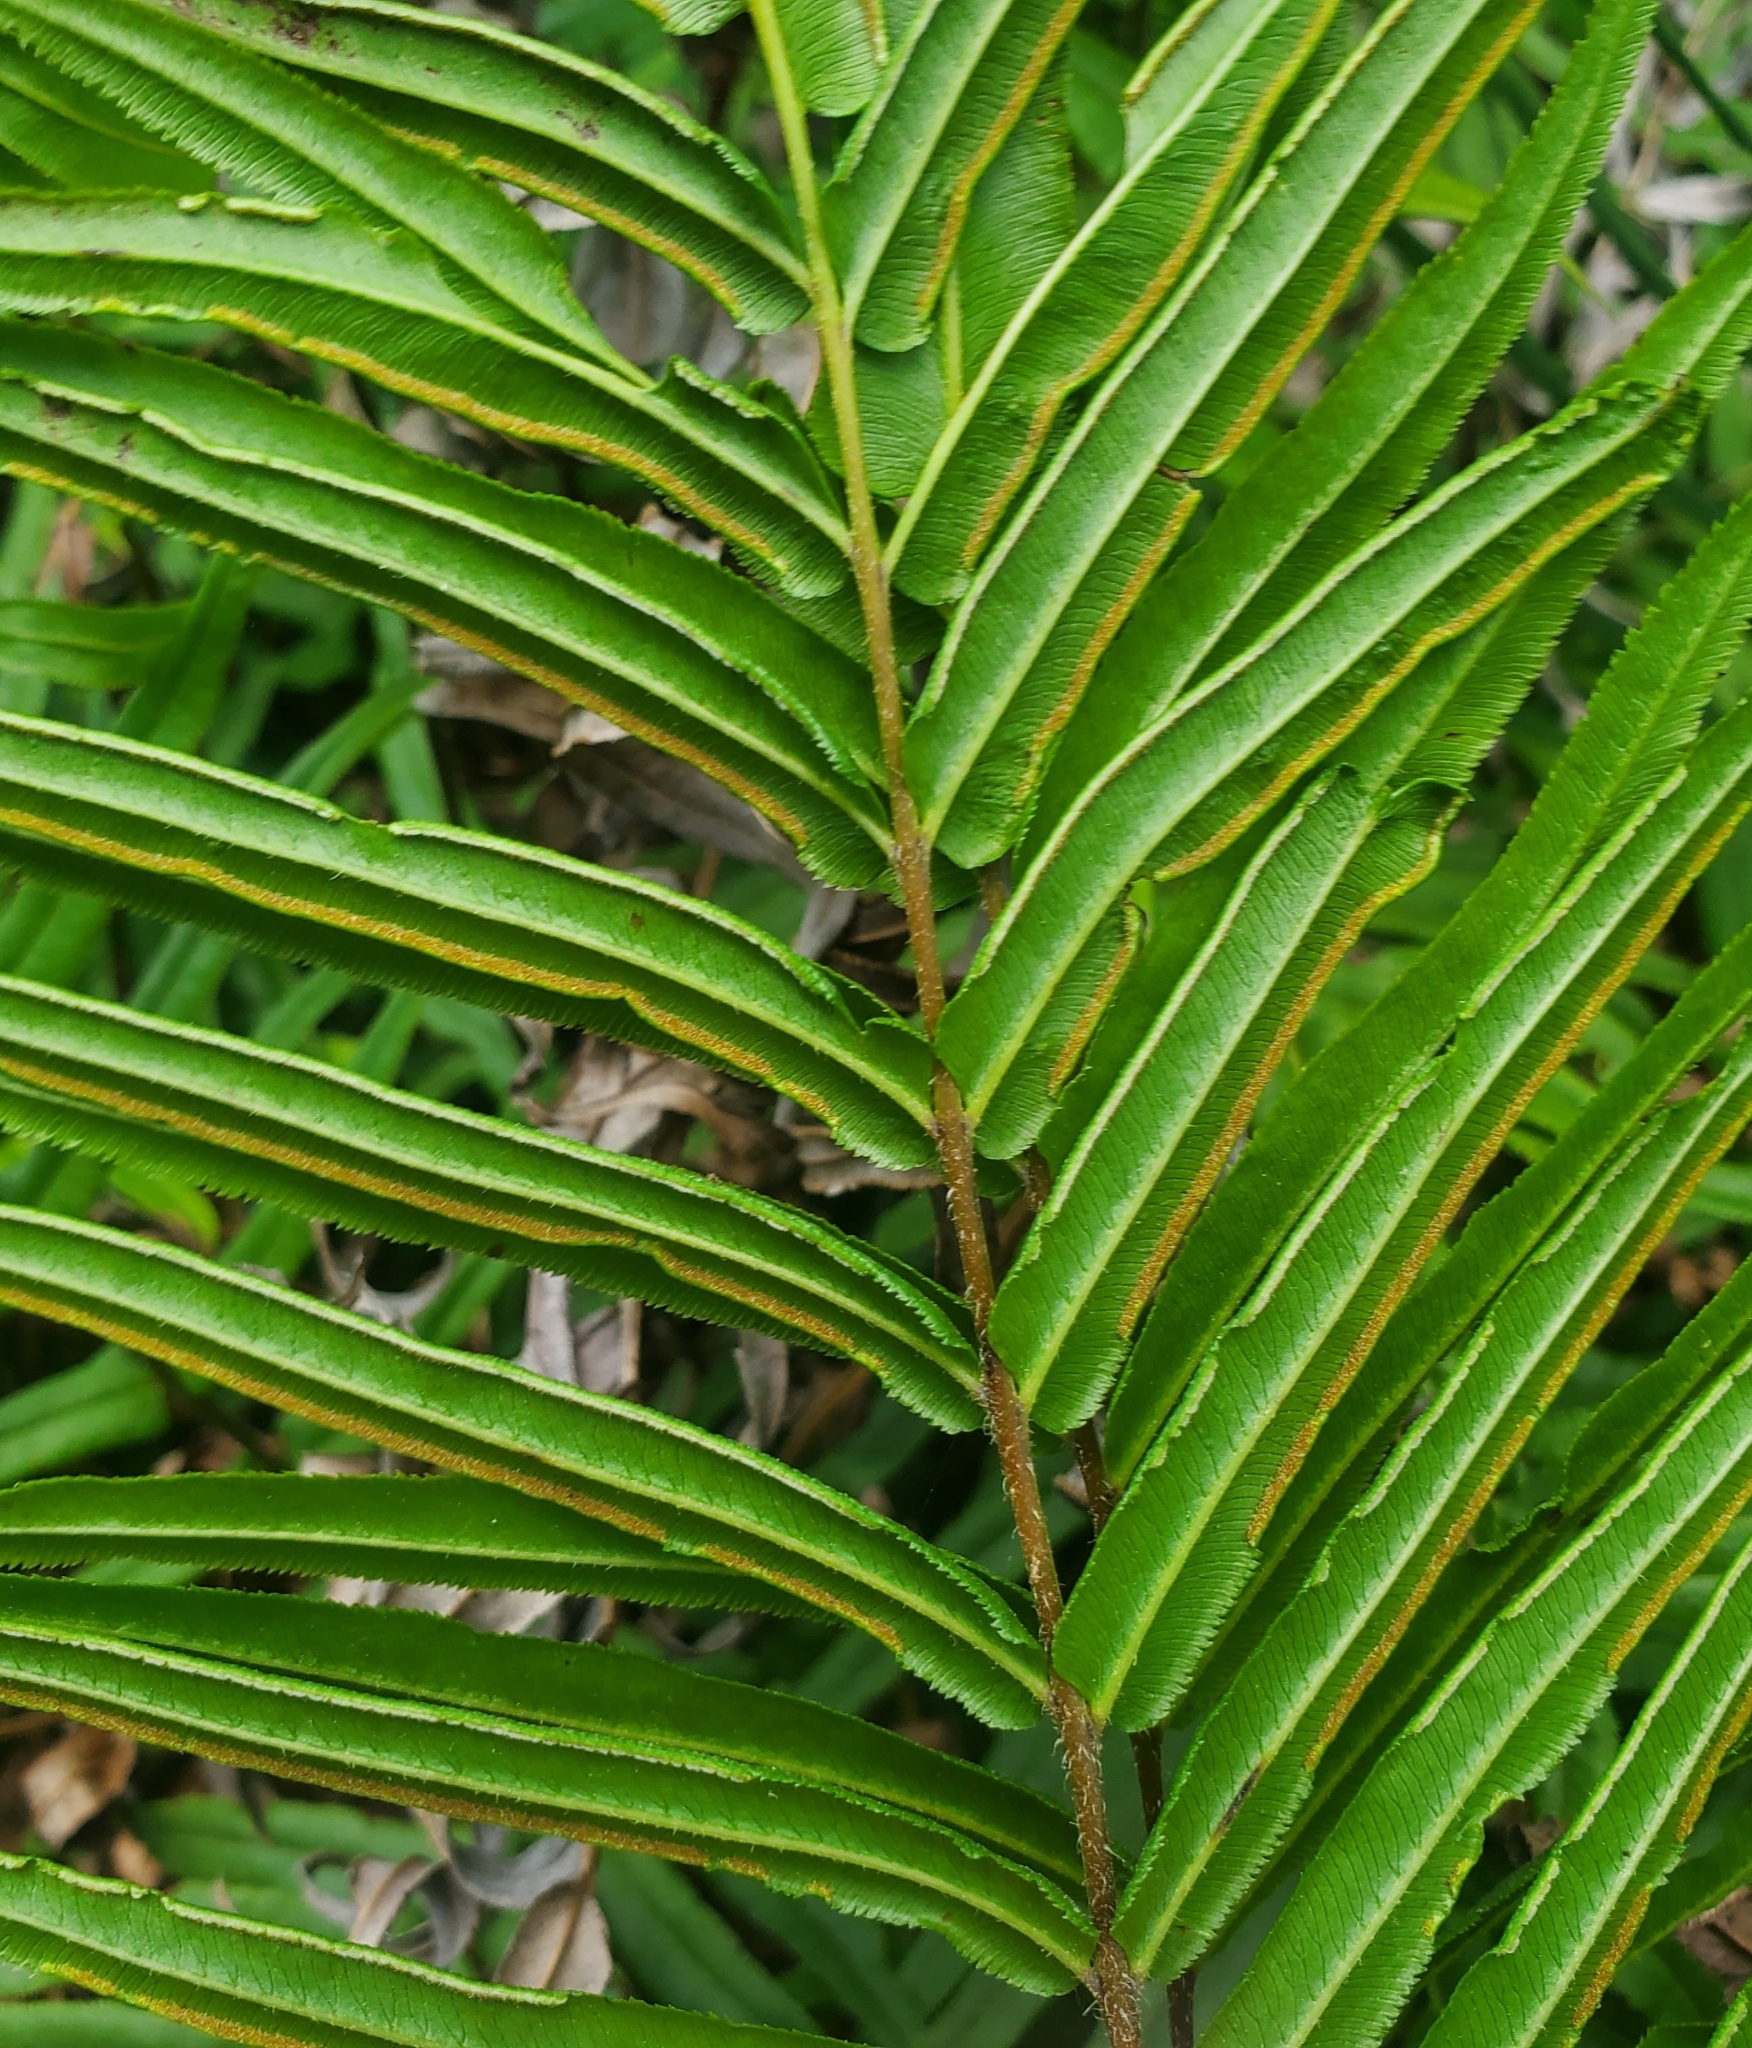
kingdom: Plantae
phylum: Tracheophyta
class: Polypodiopsida
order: Polypodiales
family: Pteridaceae
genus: Pteris
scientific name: Pteris vittata
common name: Ladder brake
